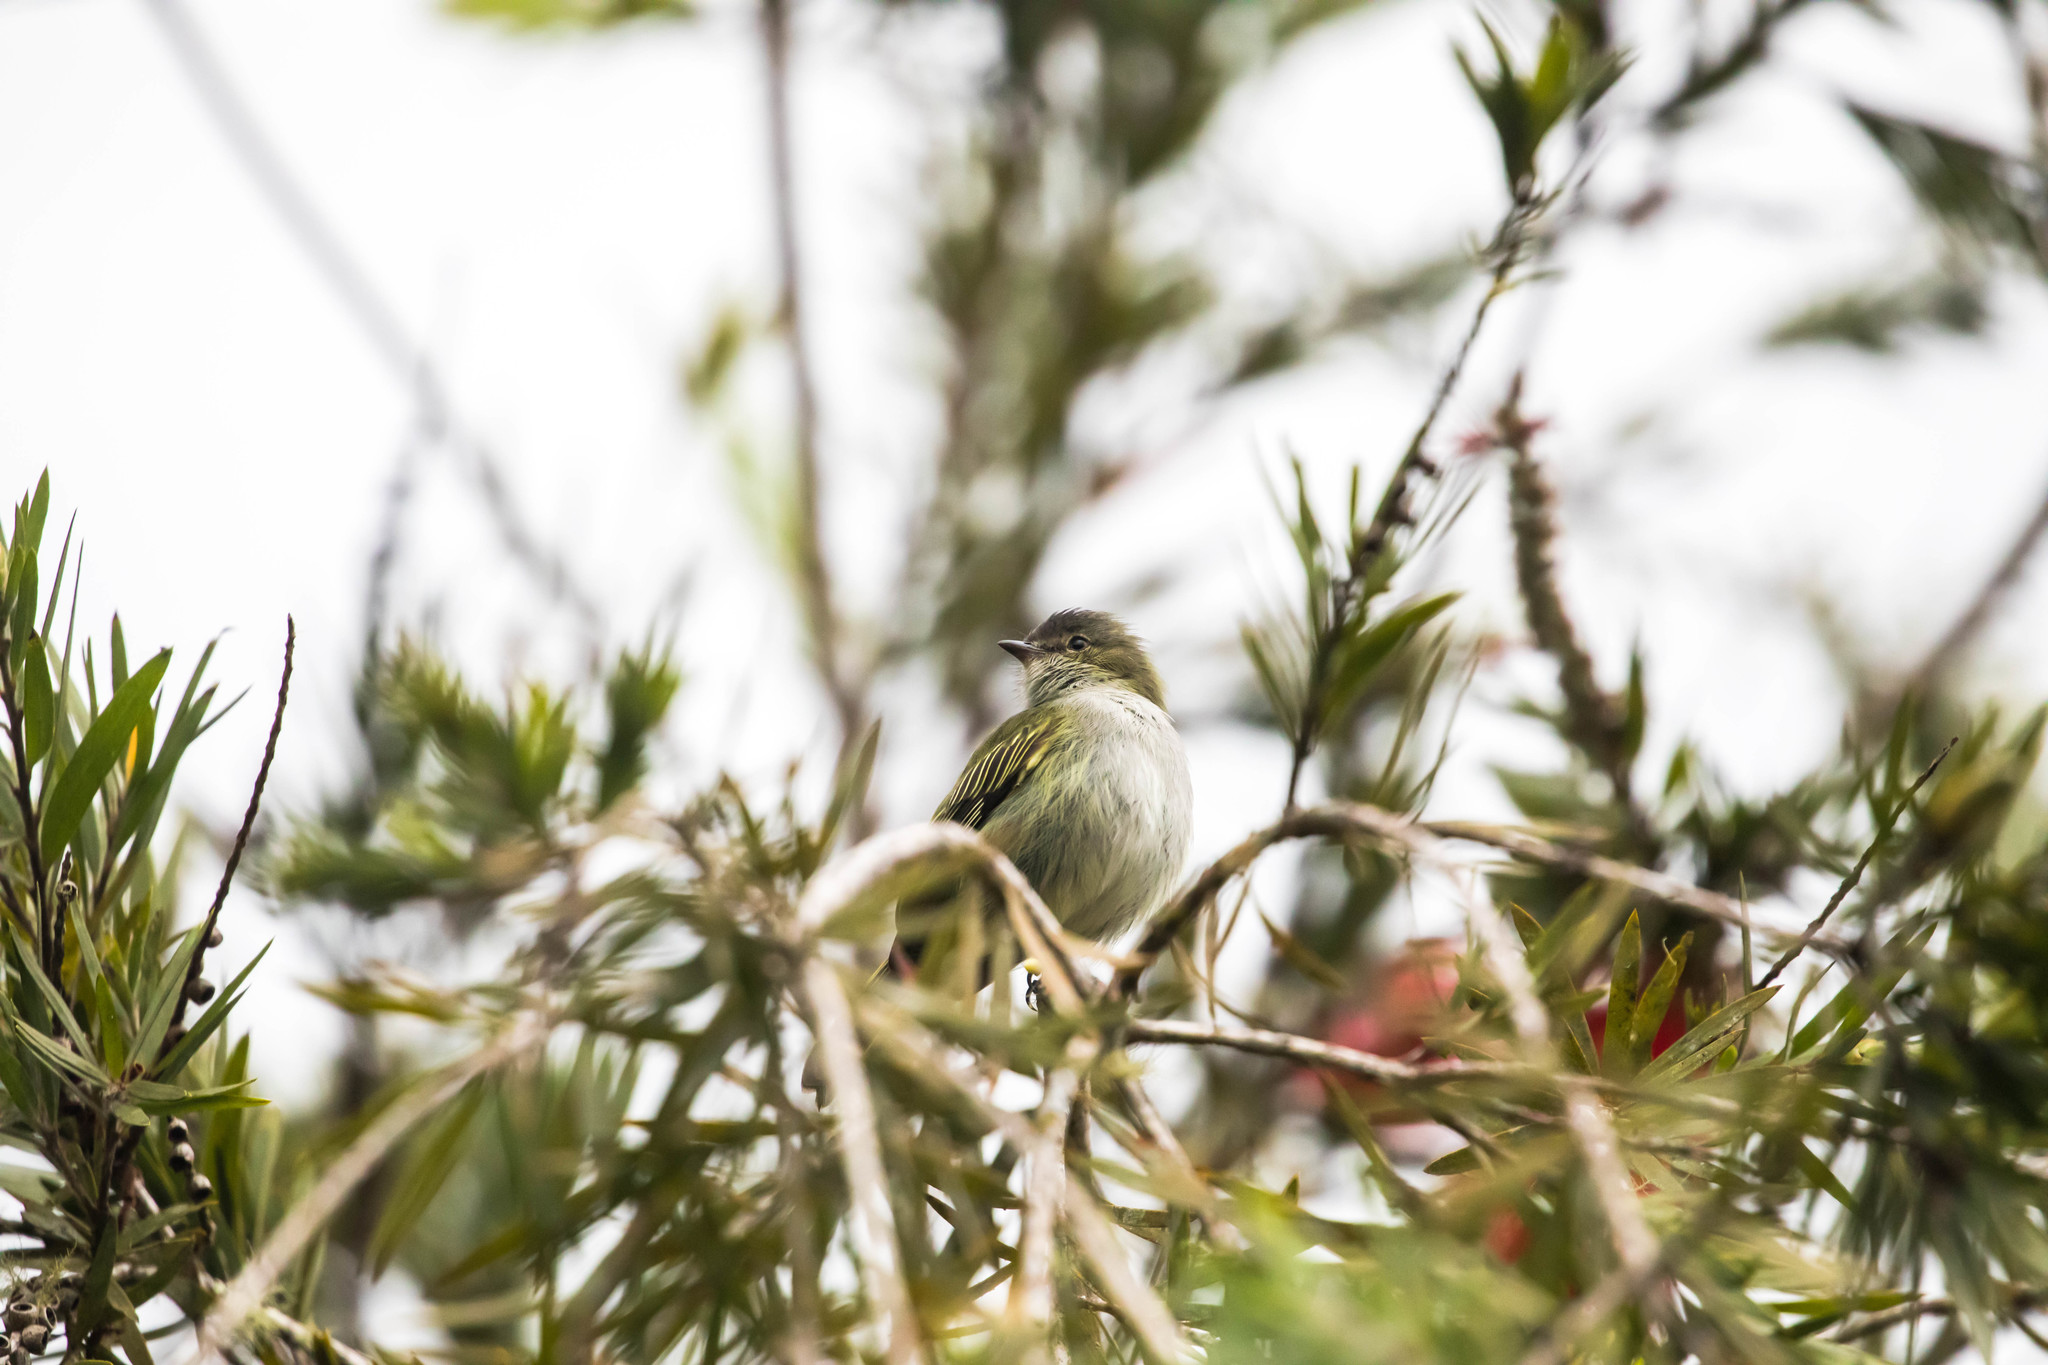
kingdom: Animalia
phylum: Chordata
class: Aves
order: Passeriformes
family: Tyrannidae
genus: Zimmerius
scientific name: Zimmerius vilissimus
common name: Paltry tyrannulet
